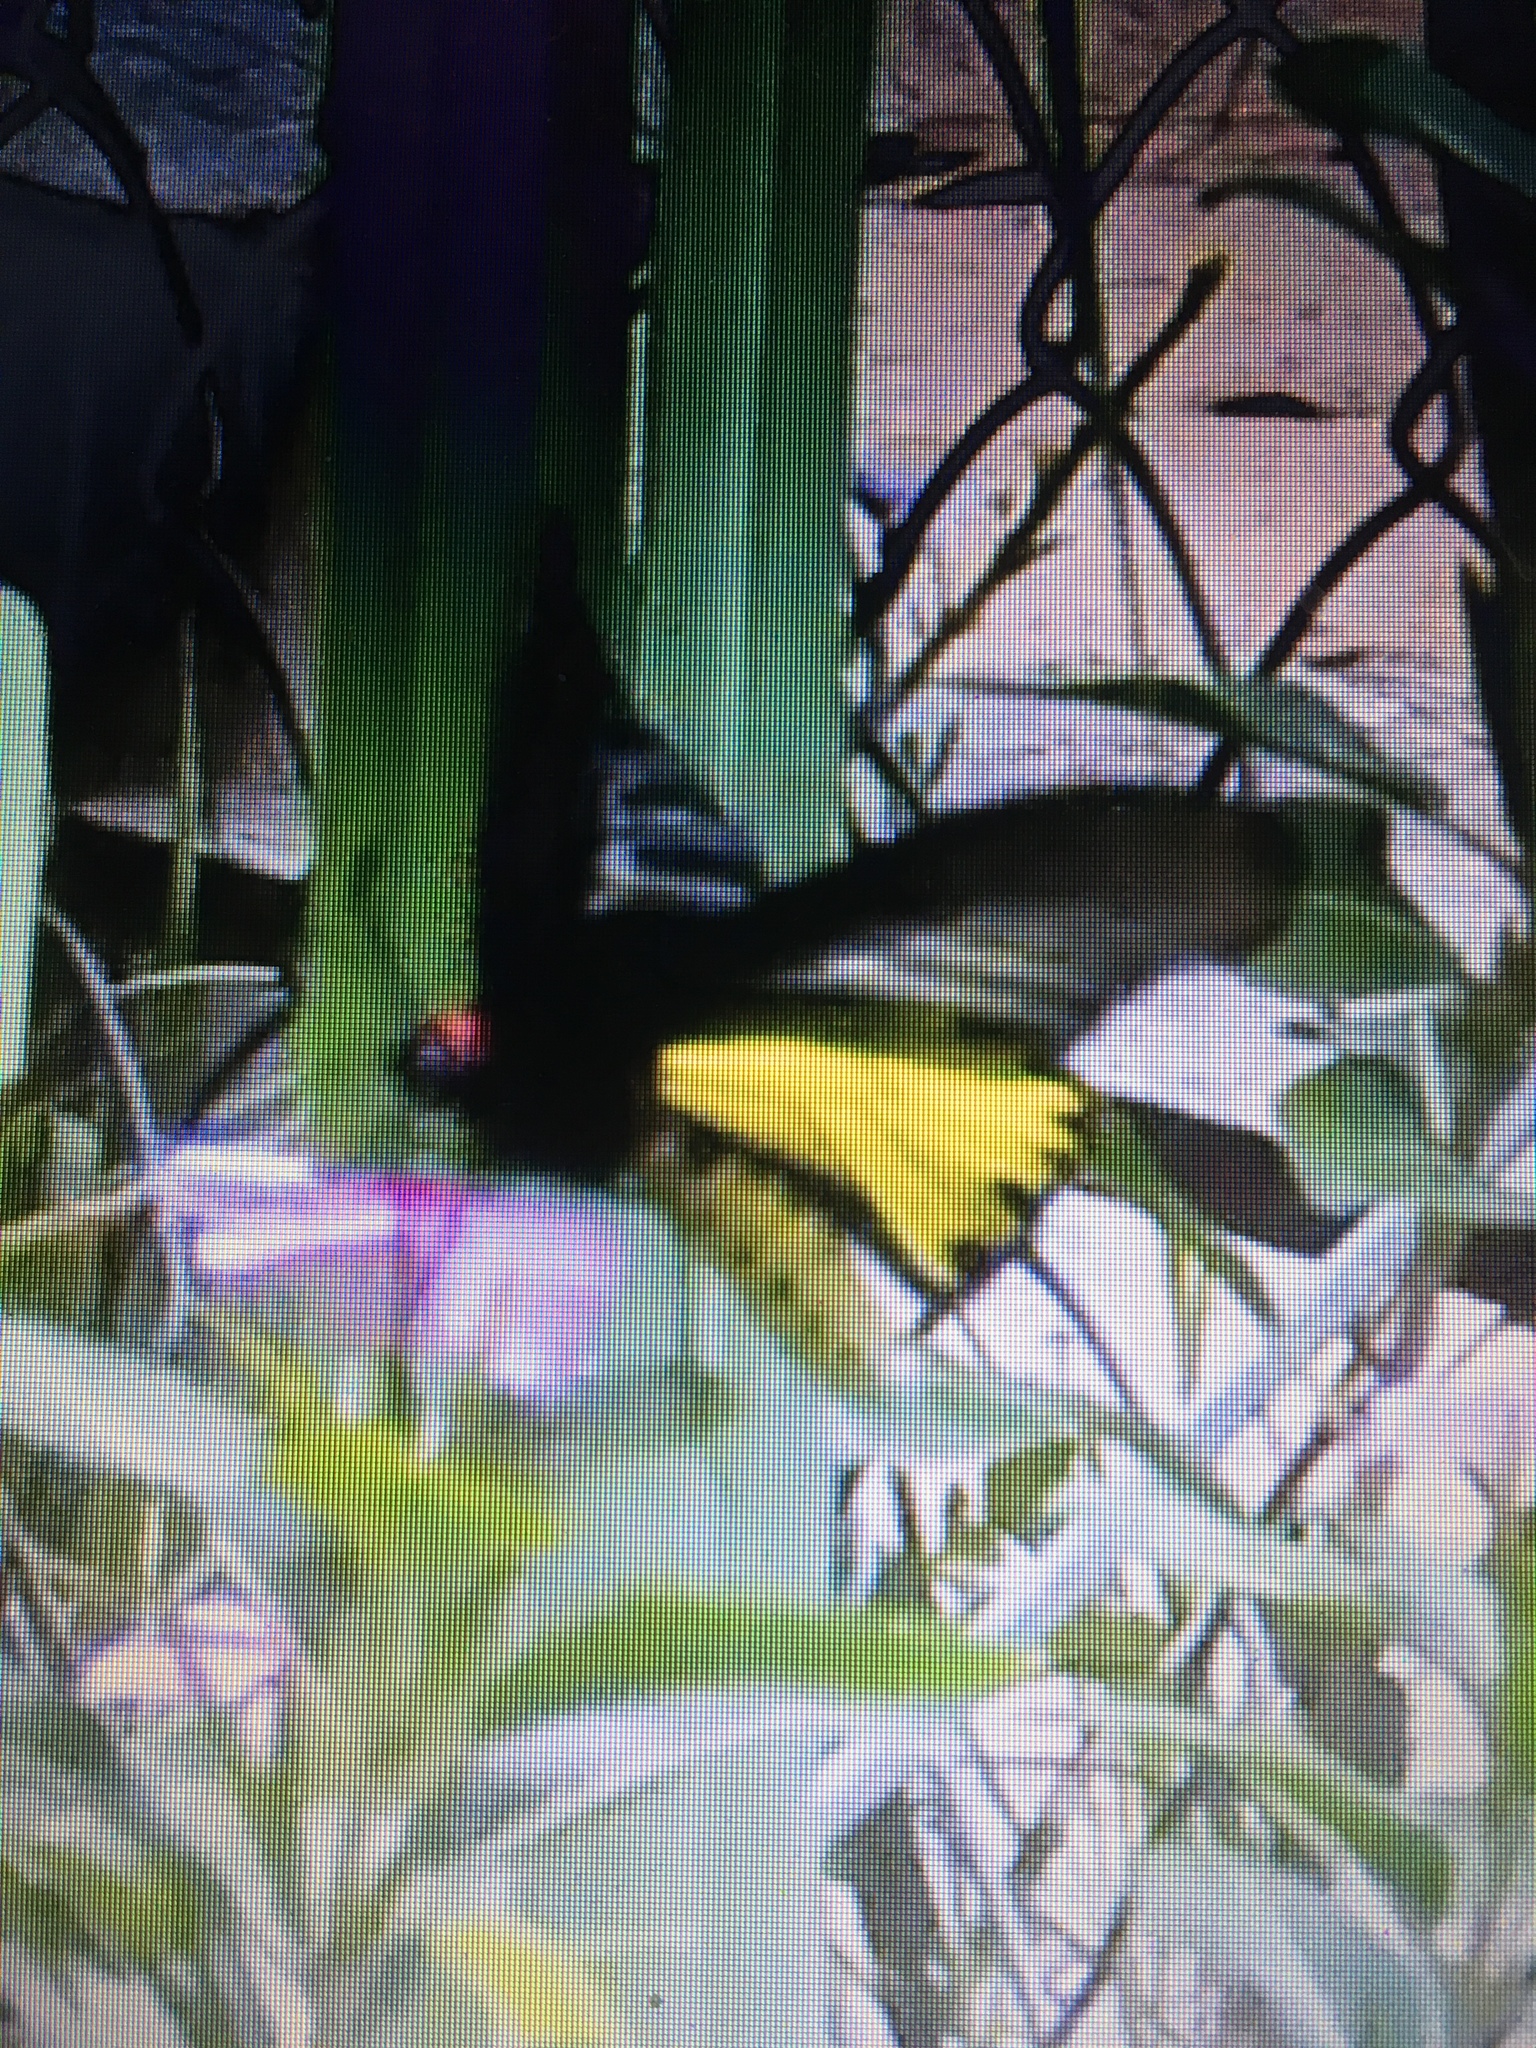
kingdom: Animalia
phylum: Arthropoda
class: Insecta
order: Lepidoptera
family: Papilionidae
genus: Troides
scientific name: Troides helena
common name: Common birdwing
